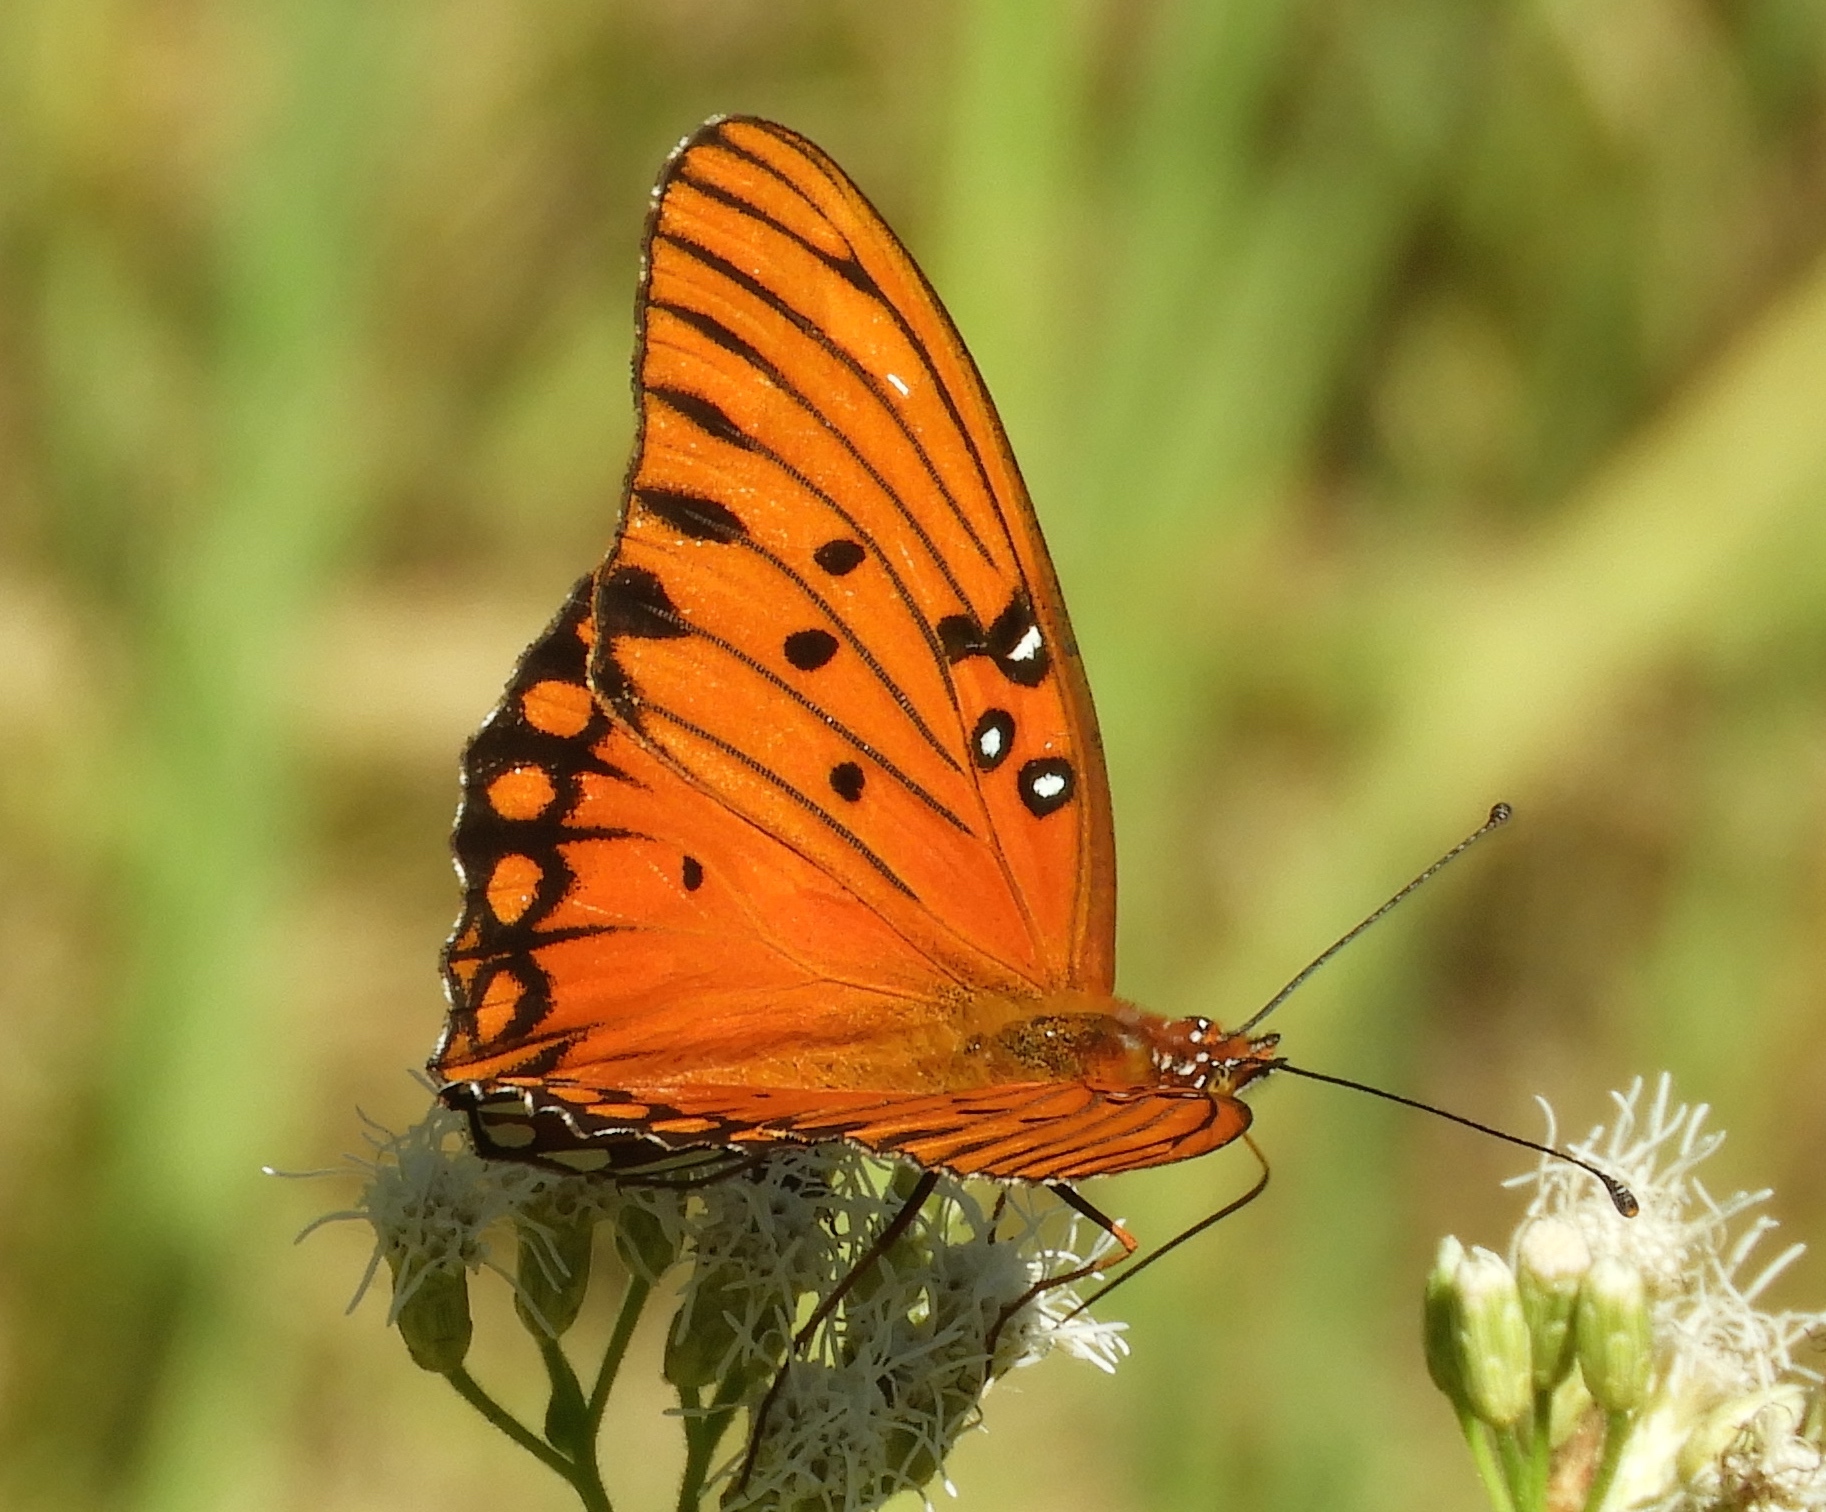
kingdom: Animalia
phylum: Arthropoda
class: Insecta
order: Lepidoptera
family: Nymphalidae
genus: Dione
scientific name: Dione vanillae
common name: Gulf fritillary
